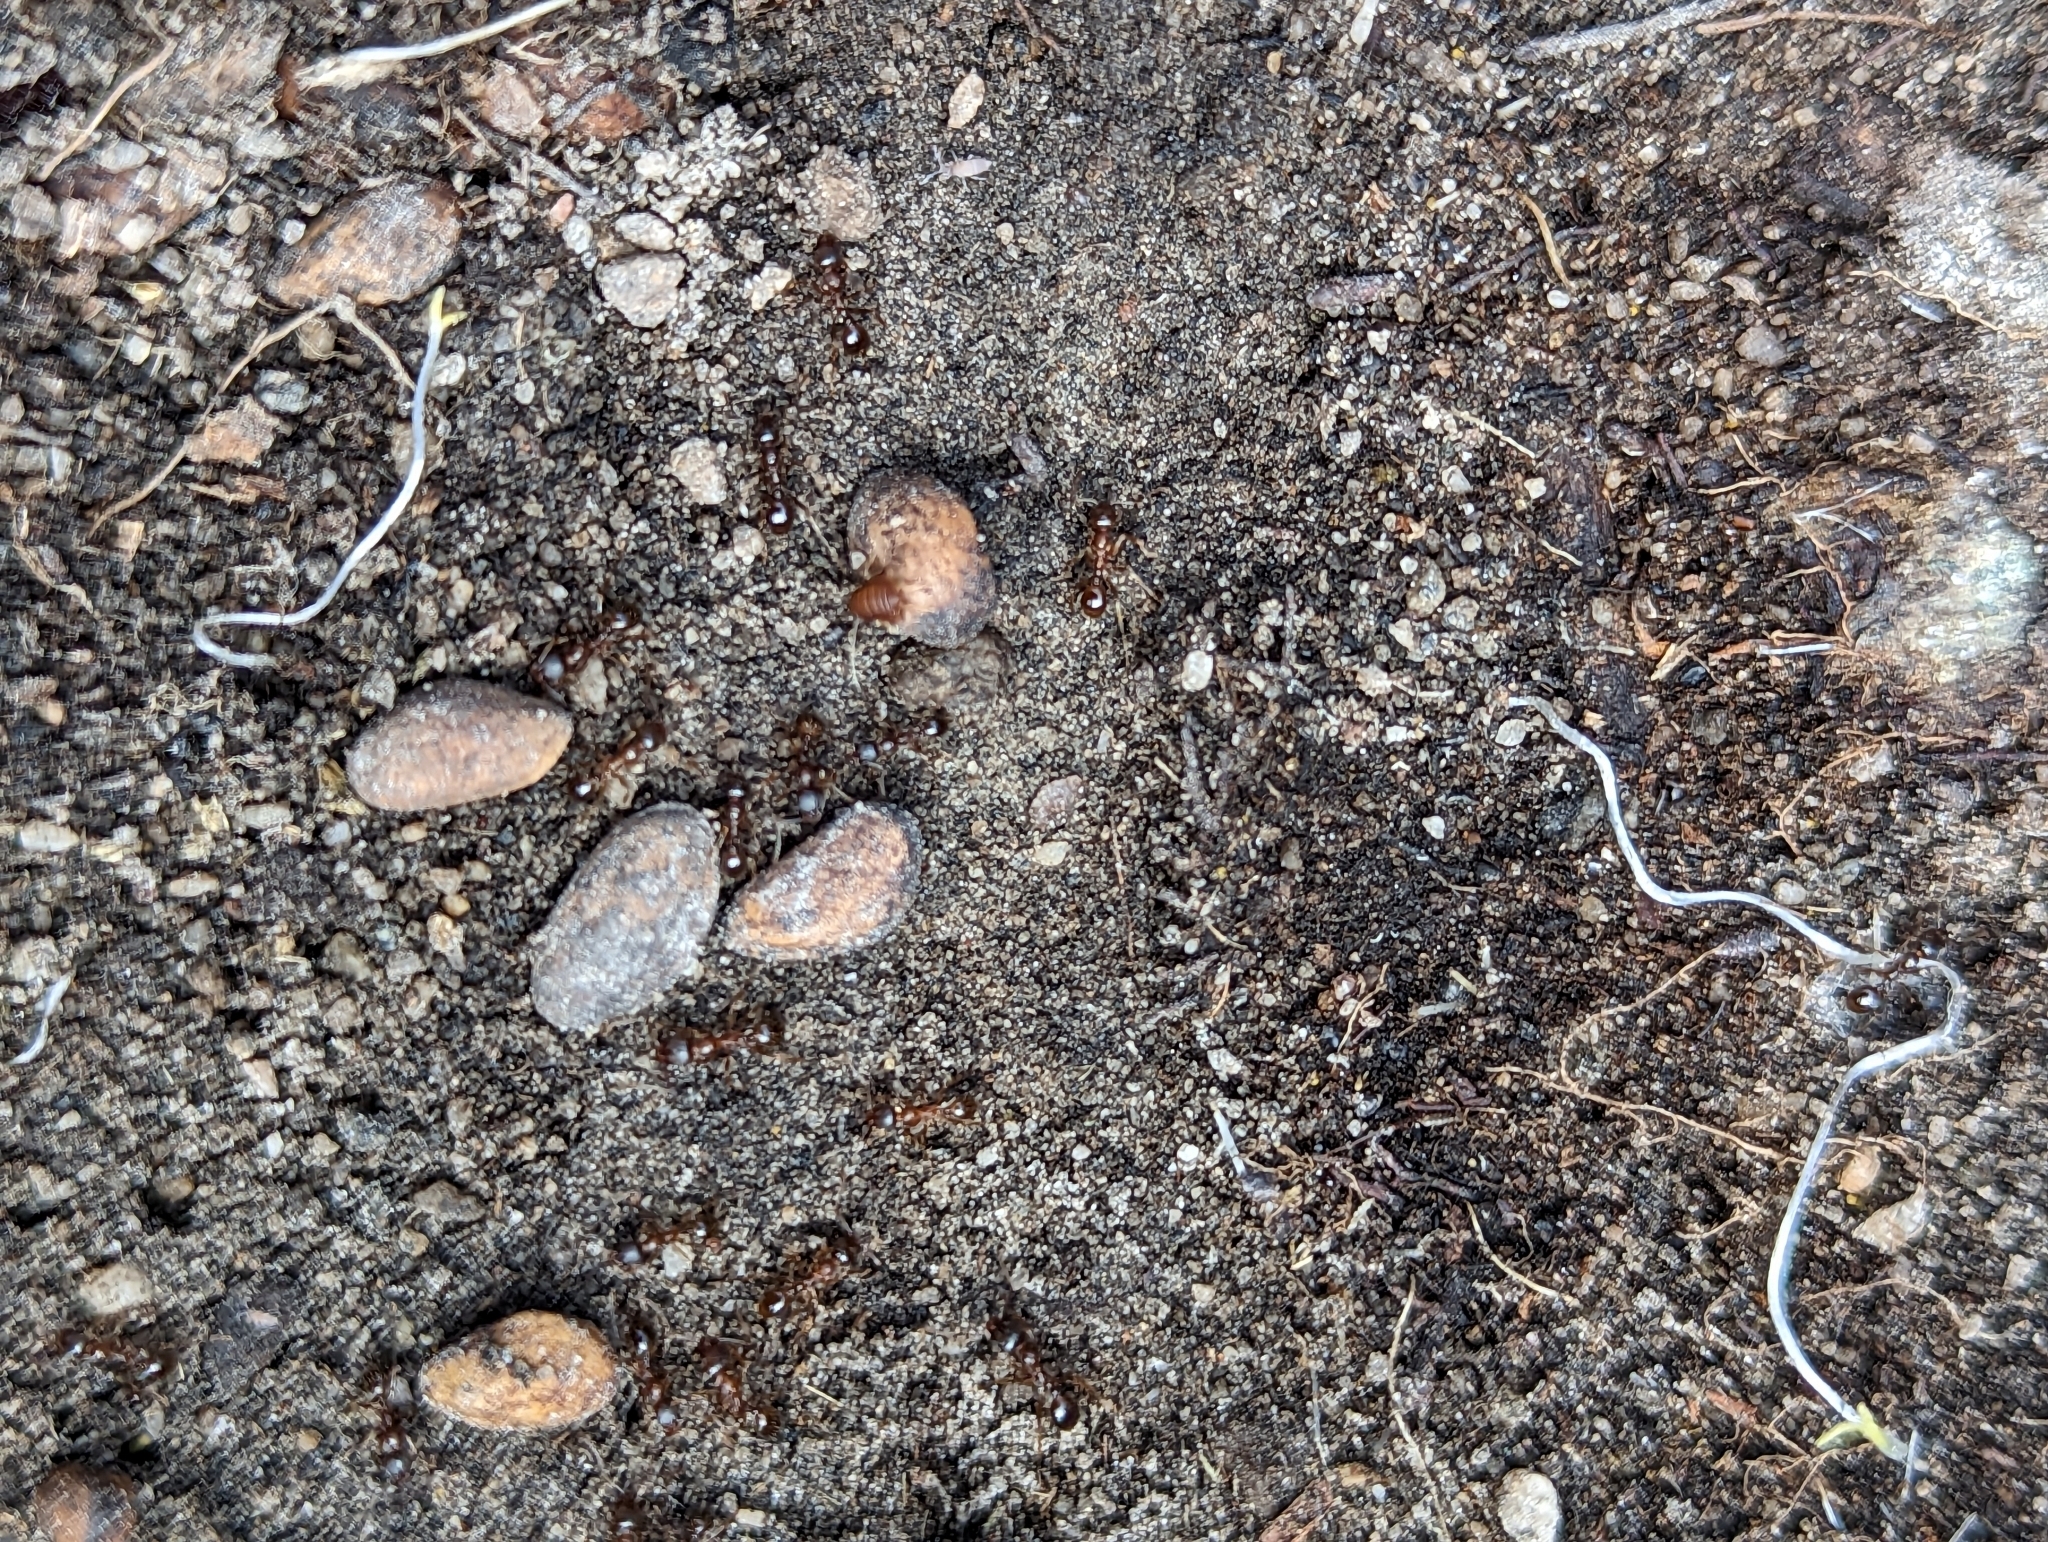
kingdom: Animalia
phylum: Arthropoda
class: Insecta
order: Hymenoptera
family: Formicidae
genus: Aphaenogaster
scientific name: Aphaenogaster occidentalis
